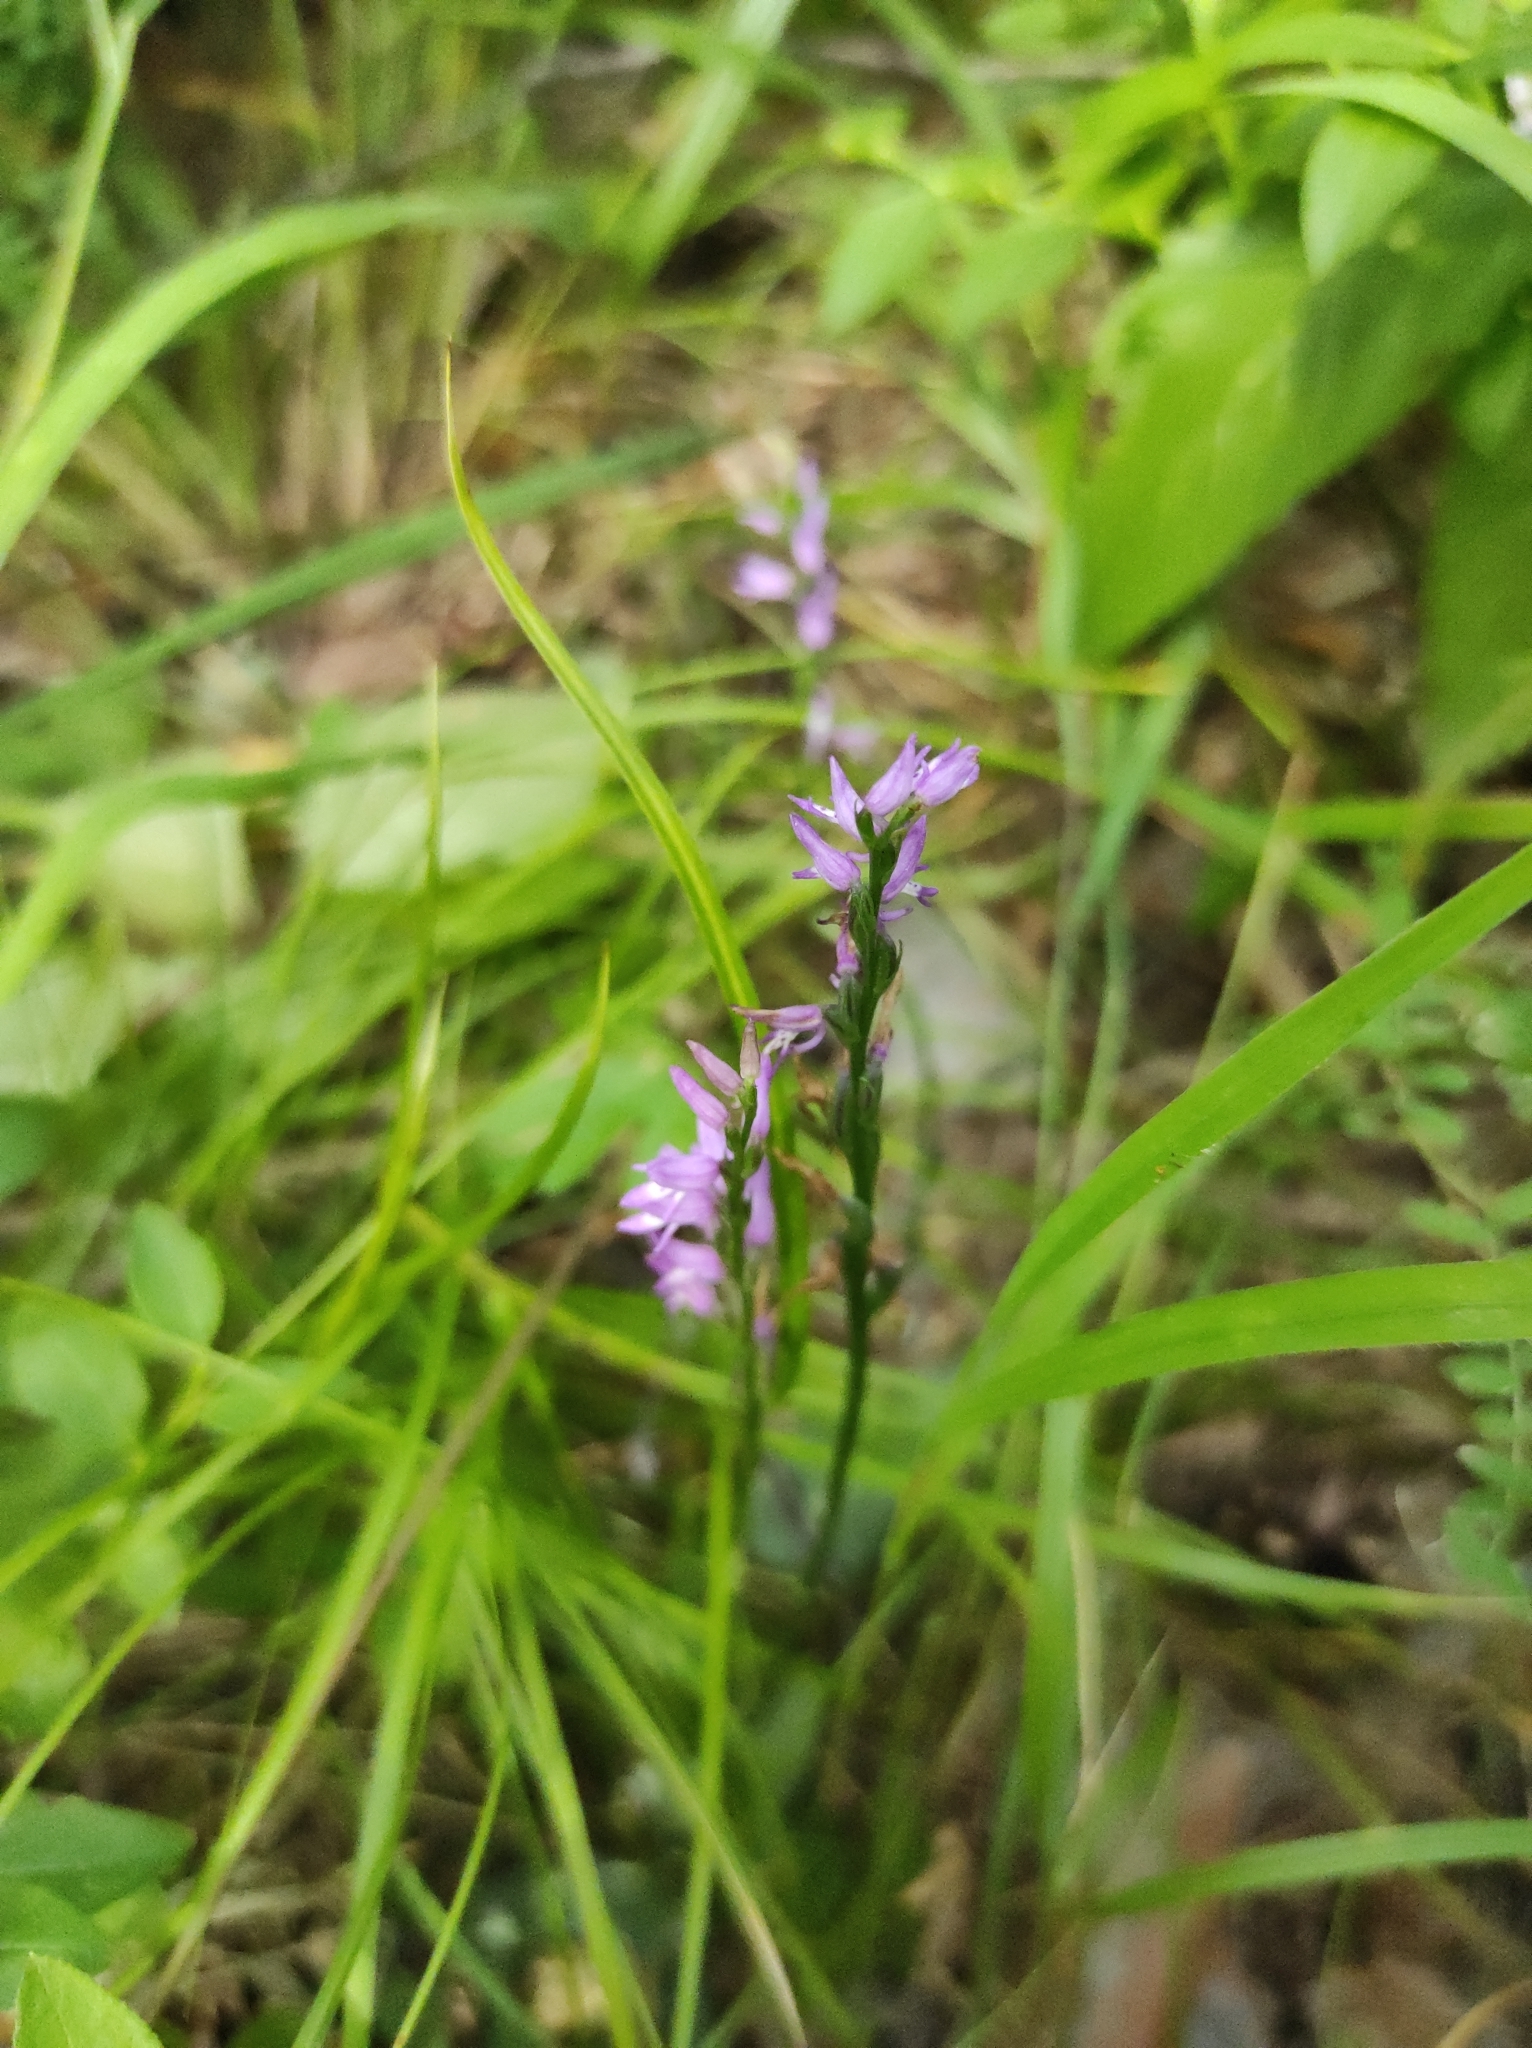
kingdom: Plantae
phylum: Tracheophyta
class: Liliopsida
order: Asparagales
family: Orchidaceae
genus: Hemipilia
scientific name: Hemipilia cucullata
